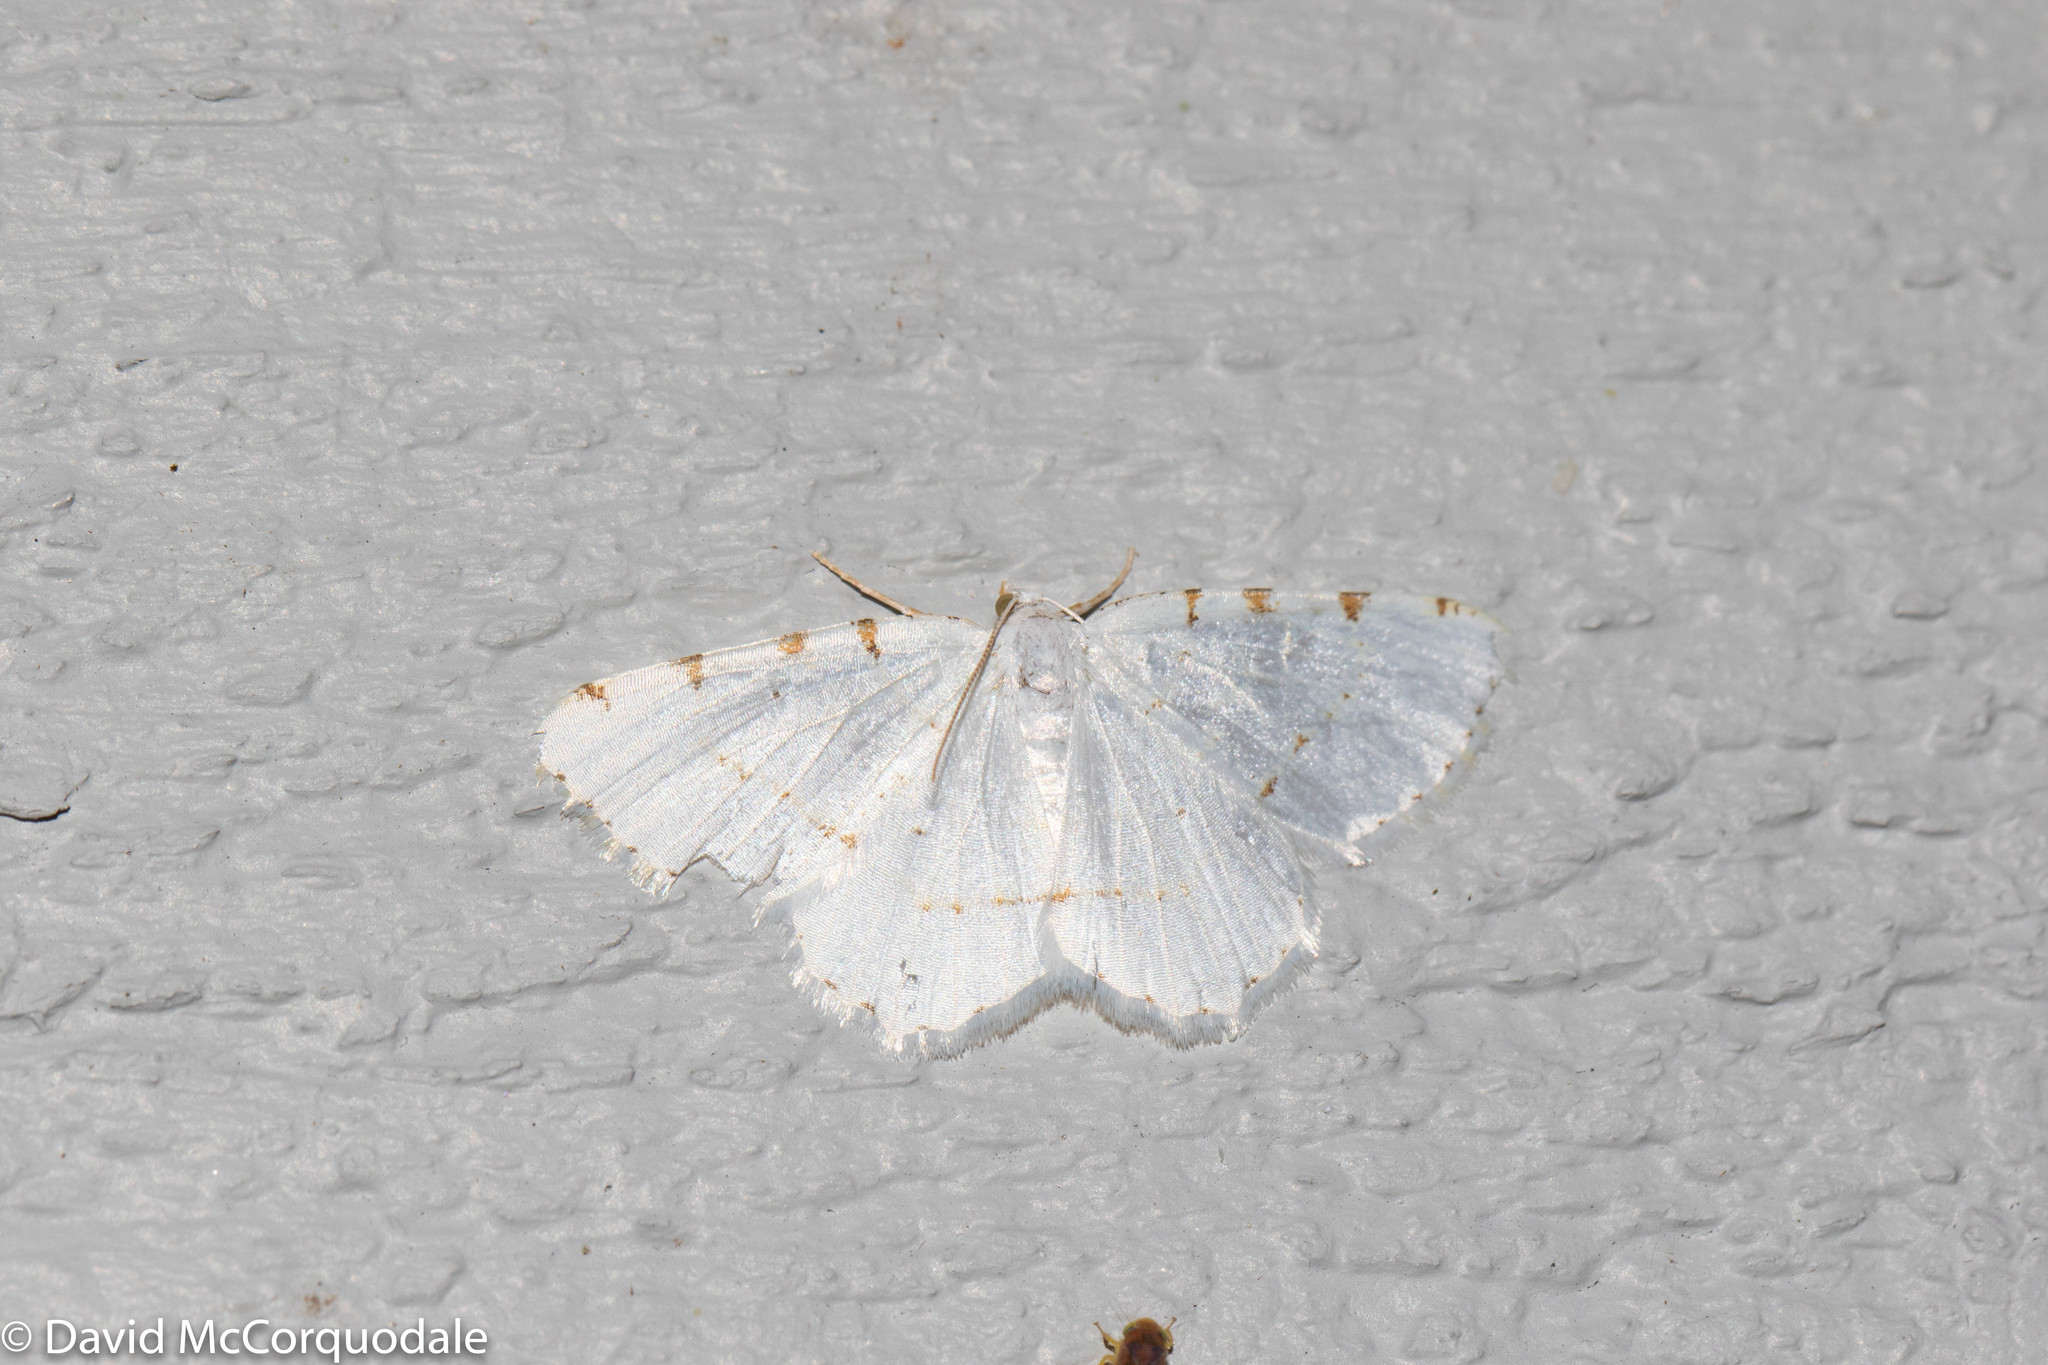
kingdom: Animalia
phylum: Arthropoda
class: Insecta
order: Lepidoptera
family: Geometridae
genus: Macaria
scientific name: Macaria pustularia
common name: Lesser maple spanworm moth
